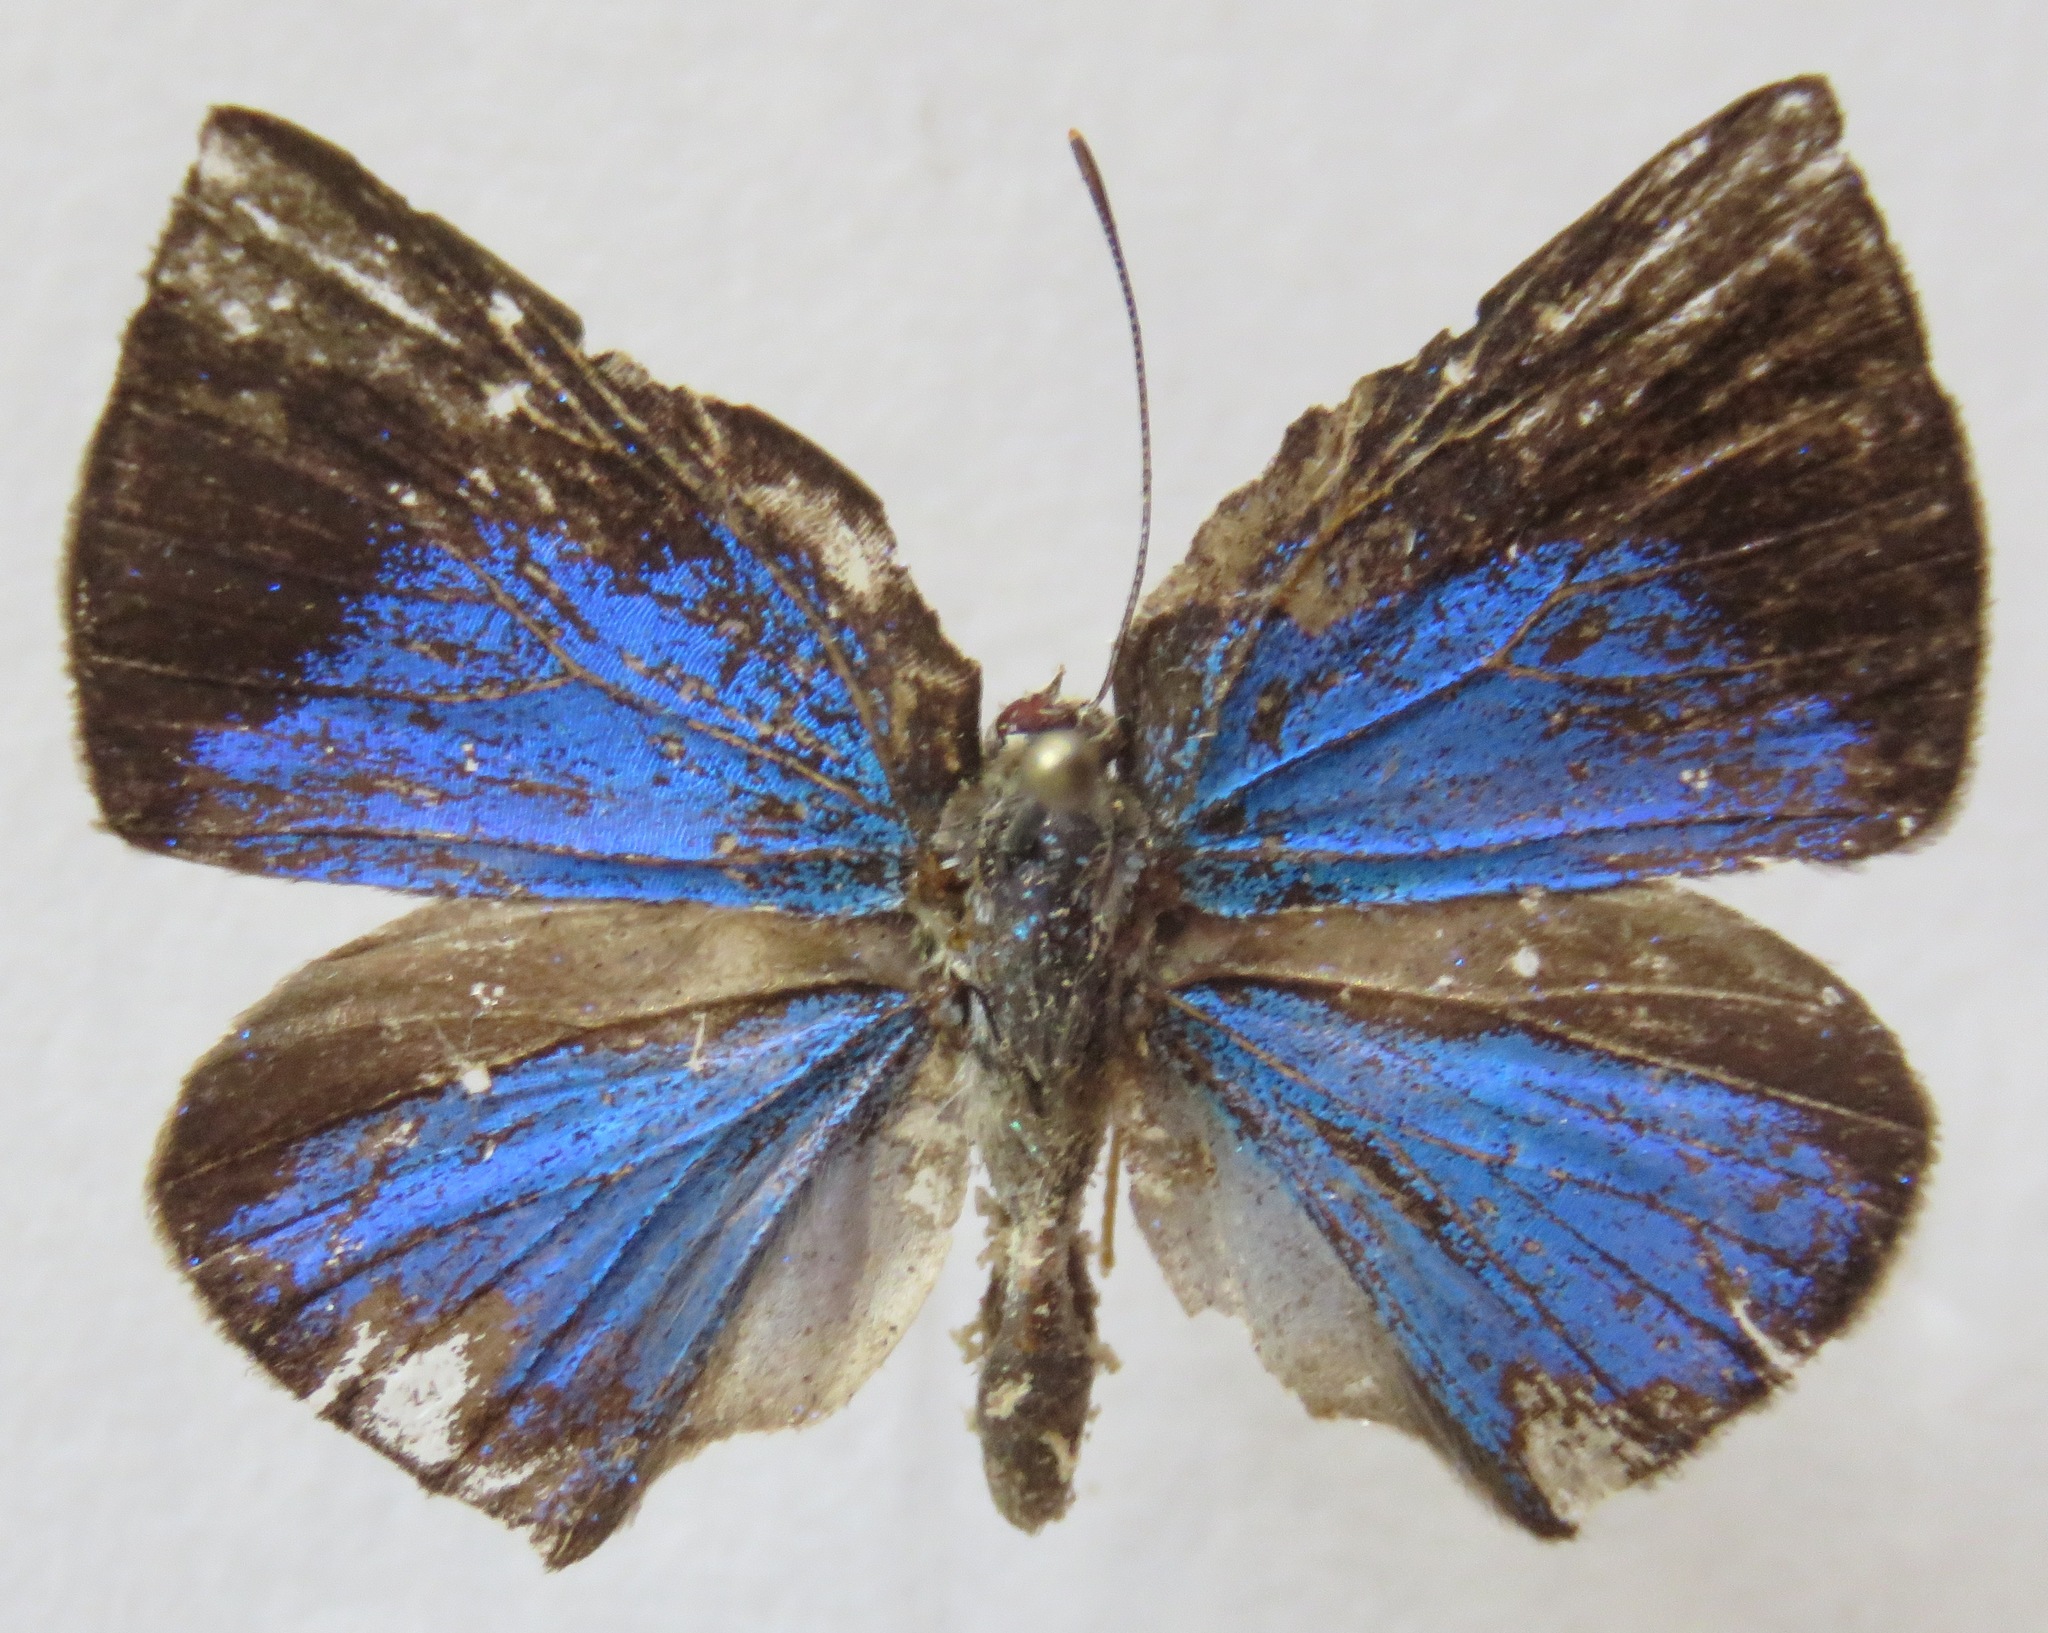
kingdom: Animalia
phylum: Arthropoda
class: Insecta
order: Lepidoptera
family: Nymphalidae
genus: Ethope
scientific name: Ethope
